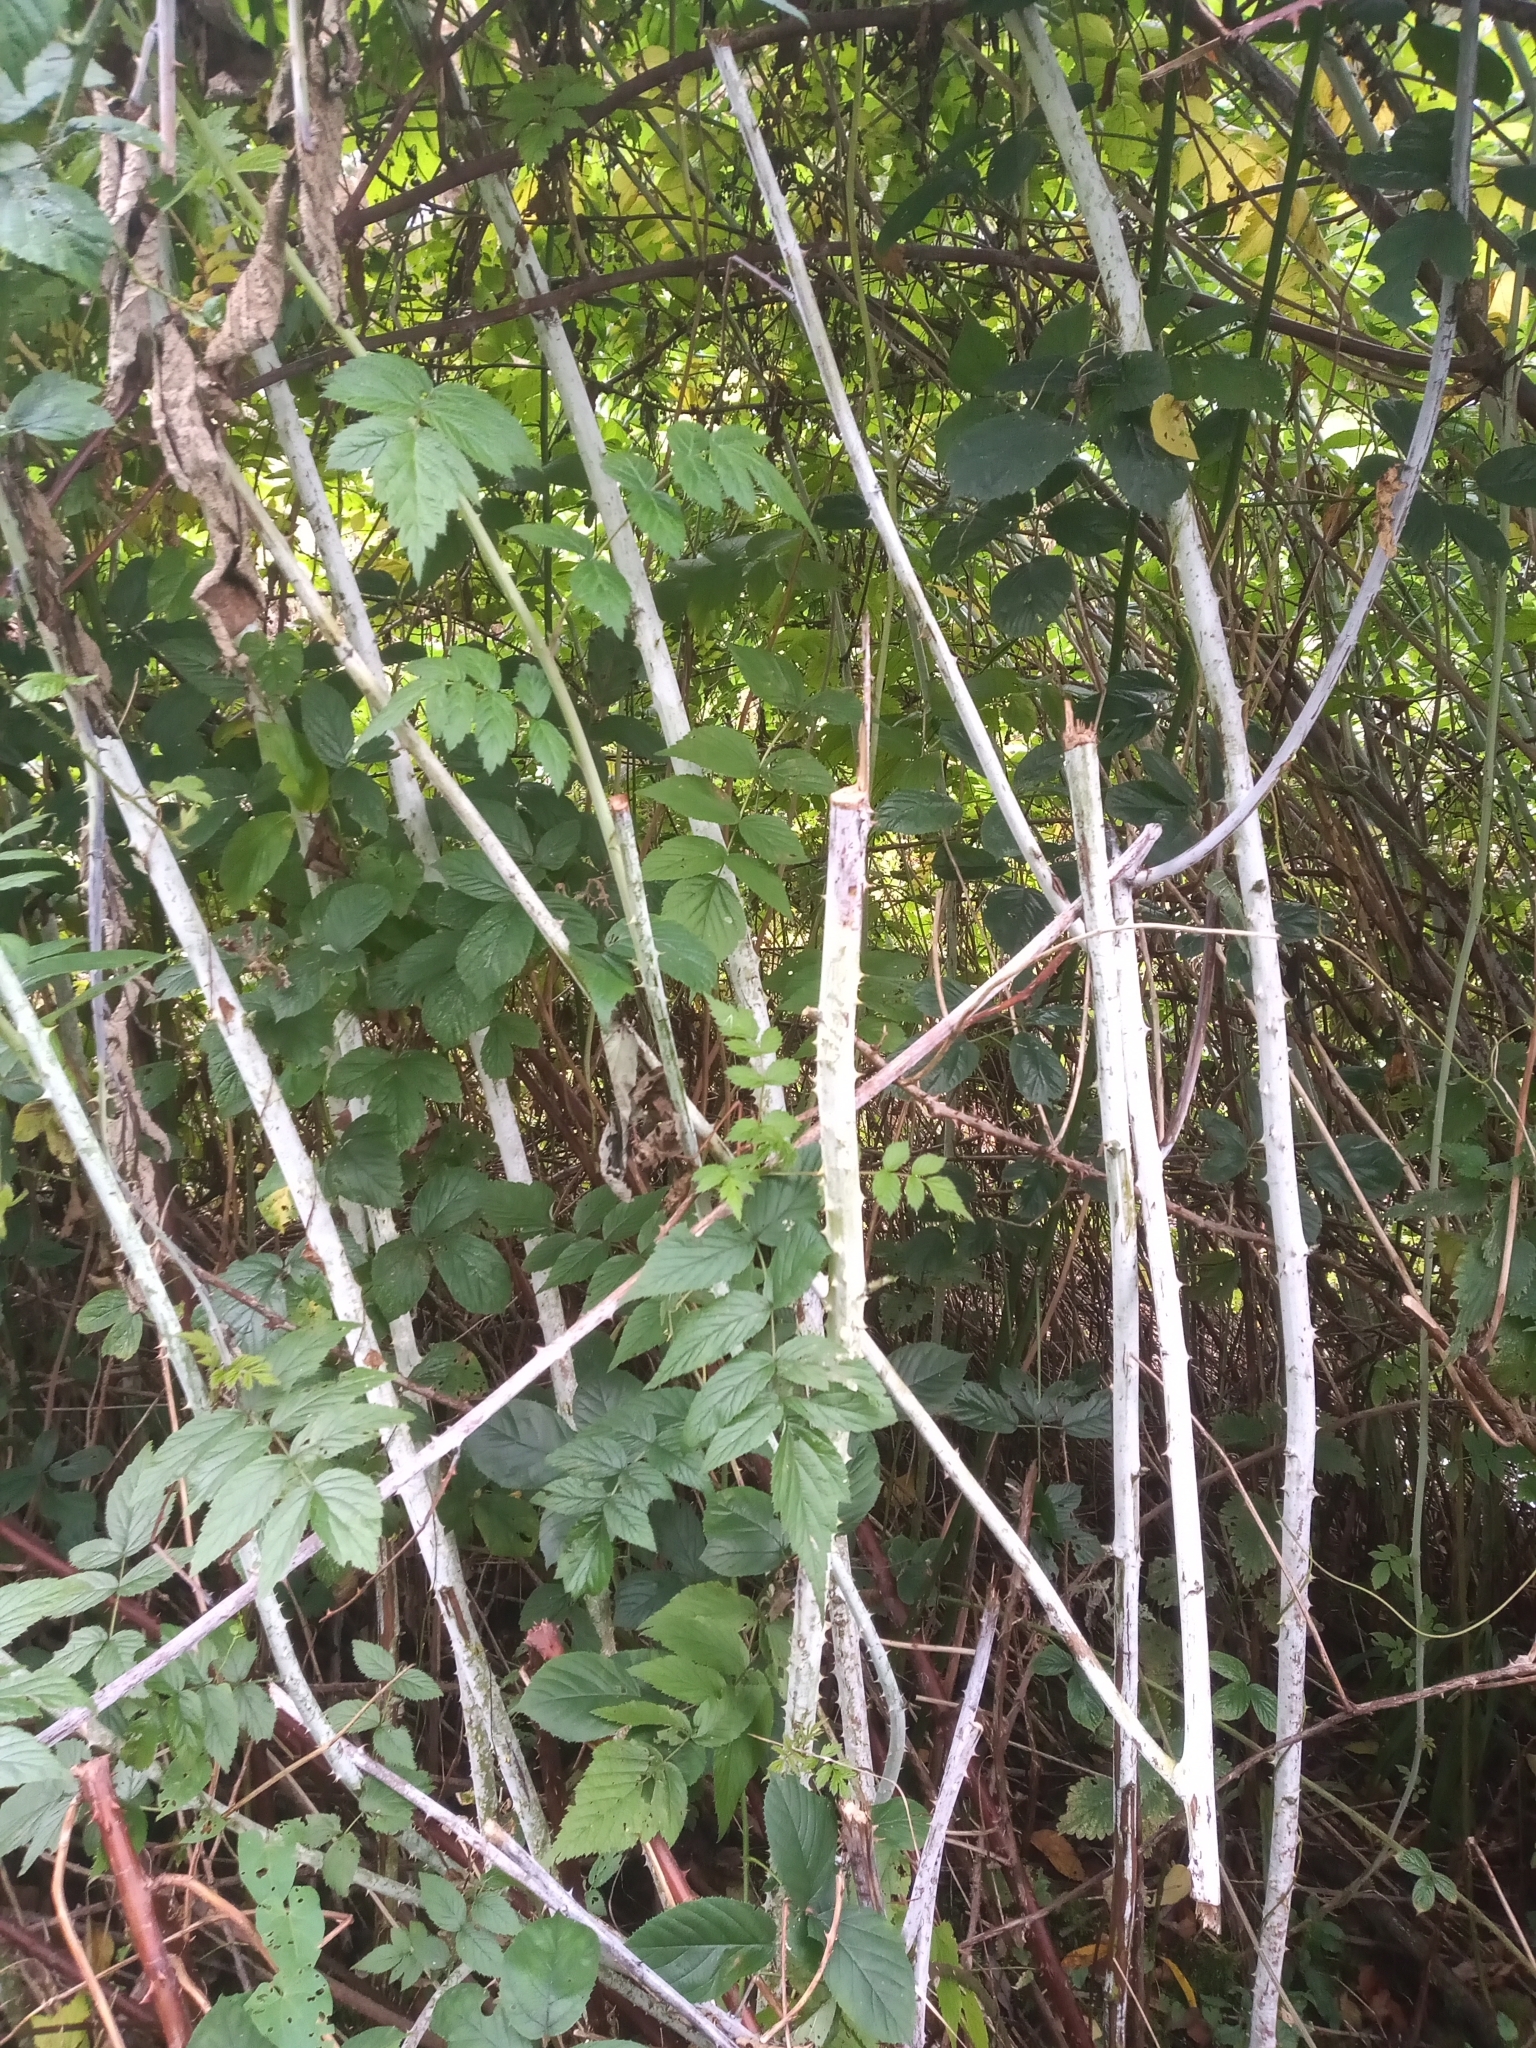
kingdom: Plantae
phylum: Tracheophyta
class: Magnoliopsida
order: Rosales
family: Rosaceae
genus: Rubus
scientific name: Rubus cockburnianus
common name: White-stemmed bramble
